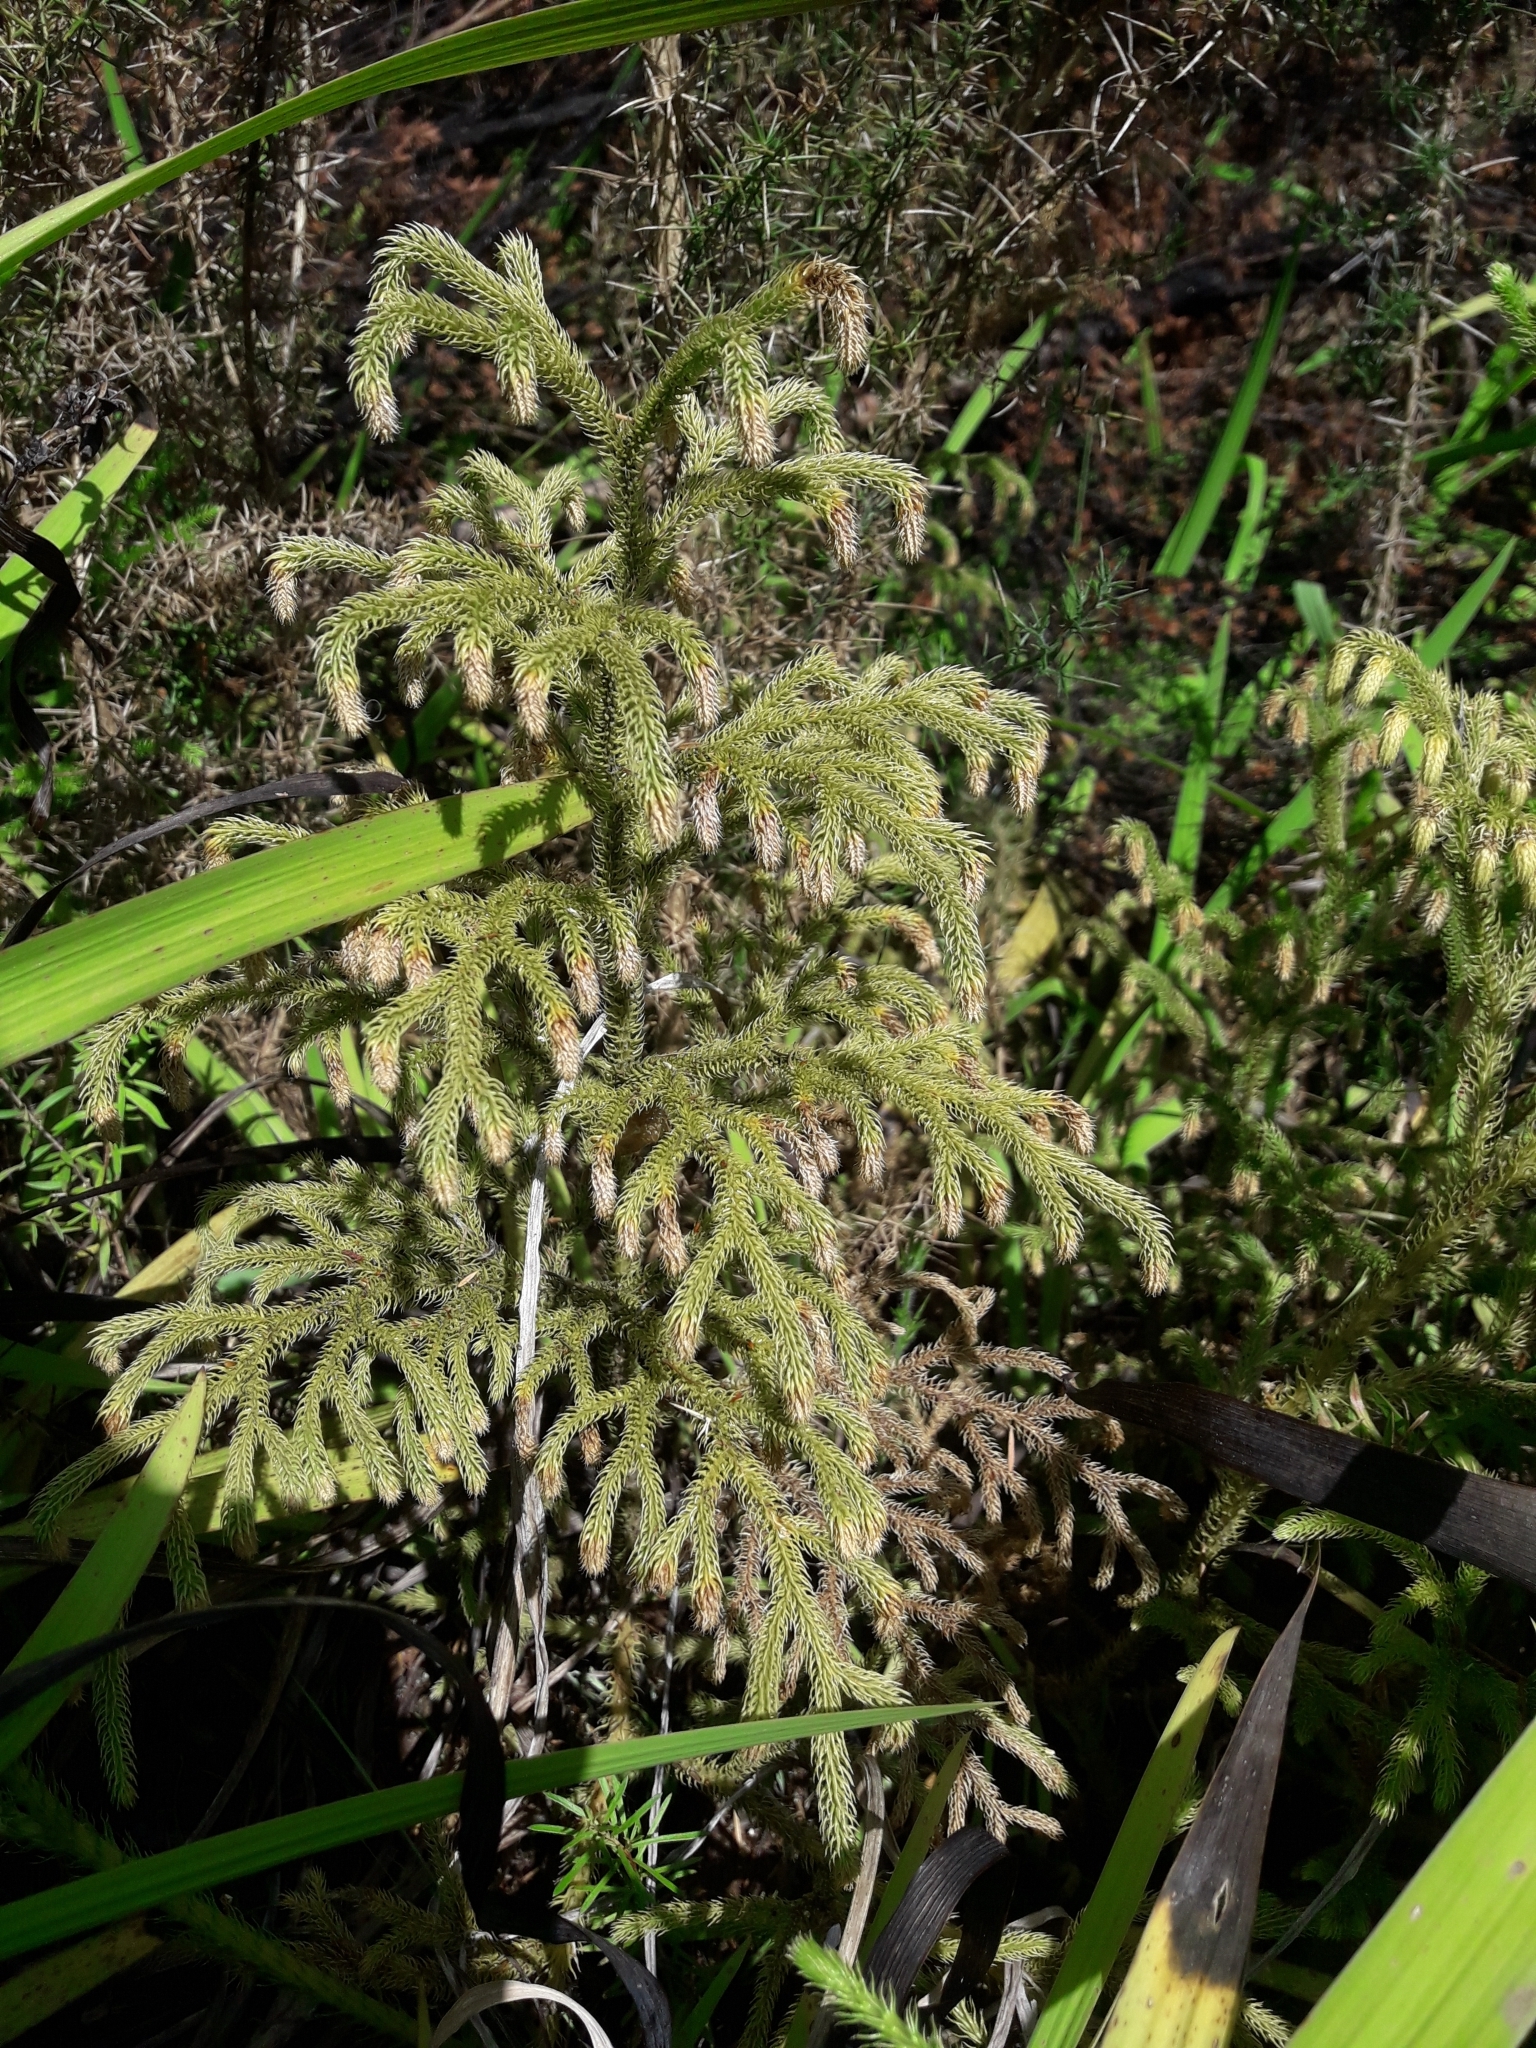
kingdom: Plantae
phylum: Tracheophyta
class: Lycopodiopsida
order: Lycopodiales
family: Lycopodiaceae
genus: Palhinhaea
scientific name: Palhinhaea cernua
